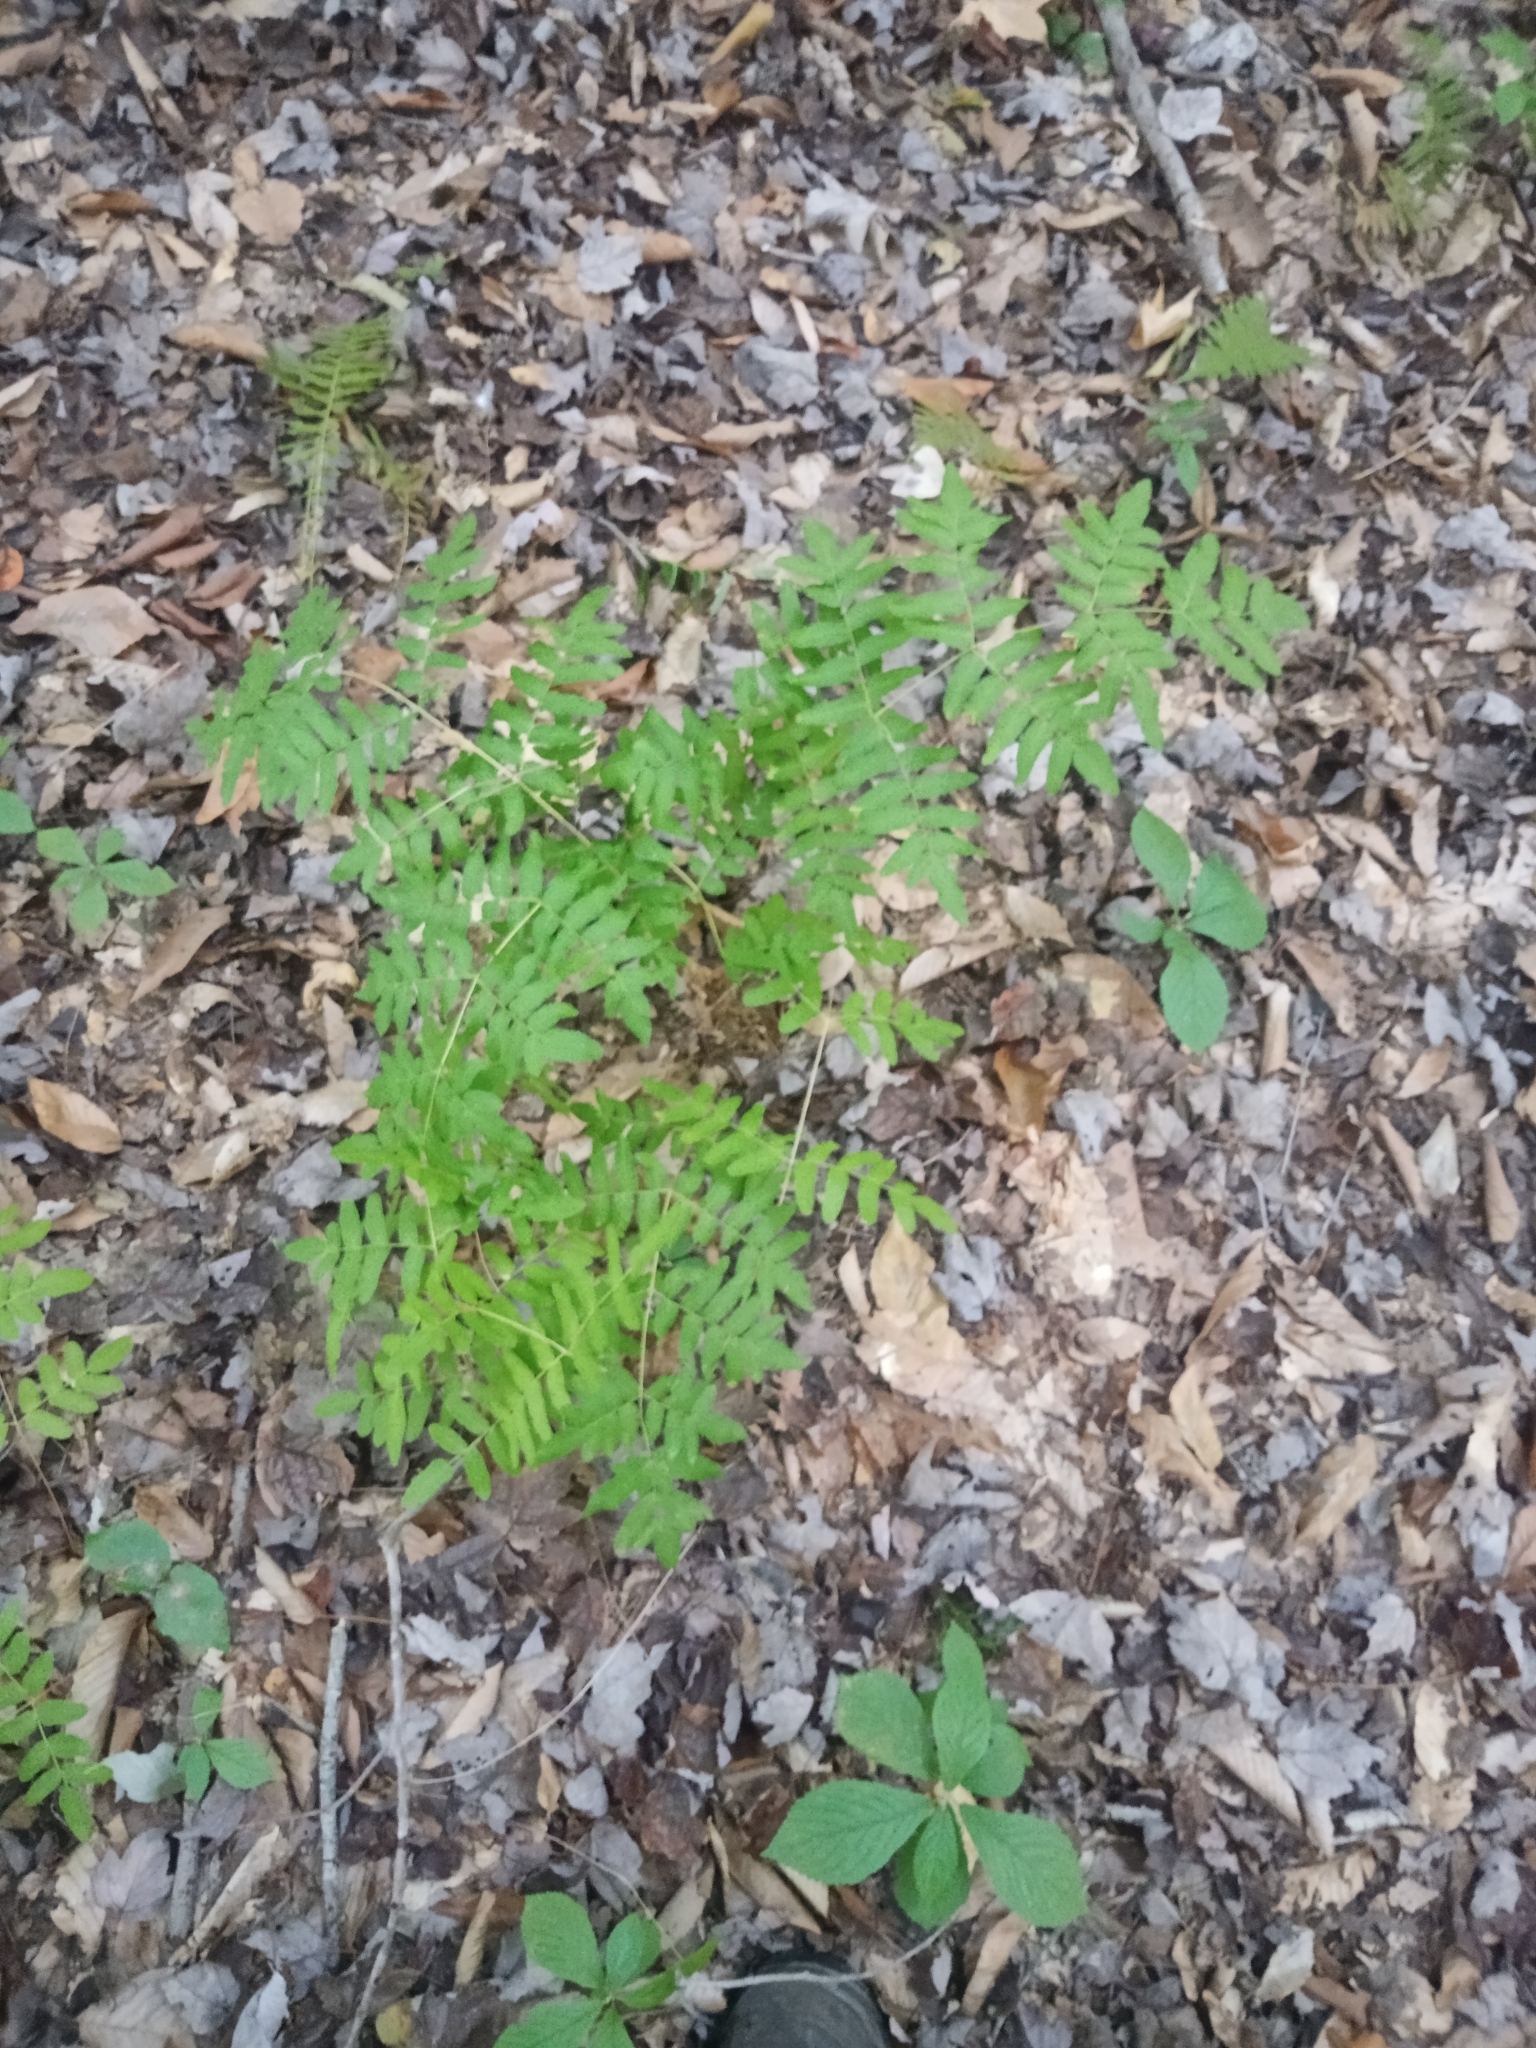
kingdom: Plantae
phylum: Tracheophyta
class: Polypodiopsida
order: Osmundales
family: Osmundaceae
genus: Osmunda
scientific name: Osmunda spectabilis
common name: American royal fern
